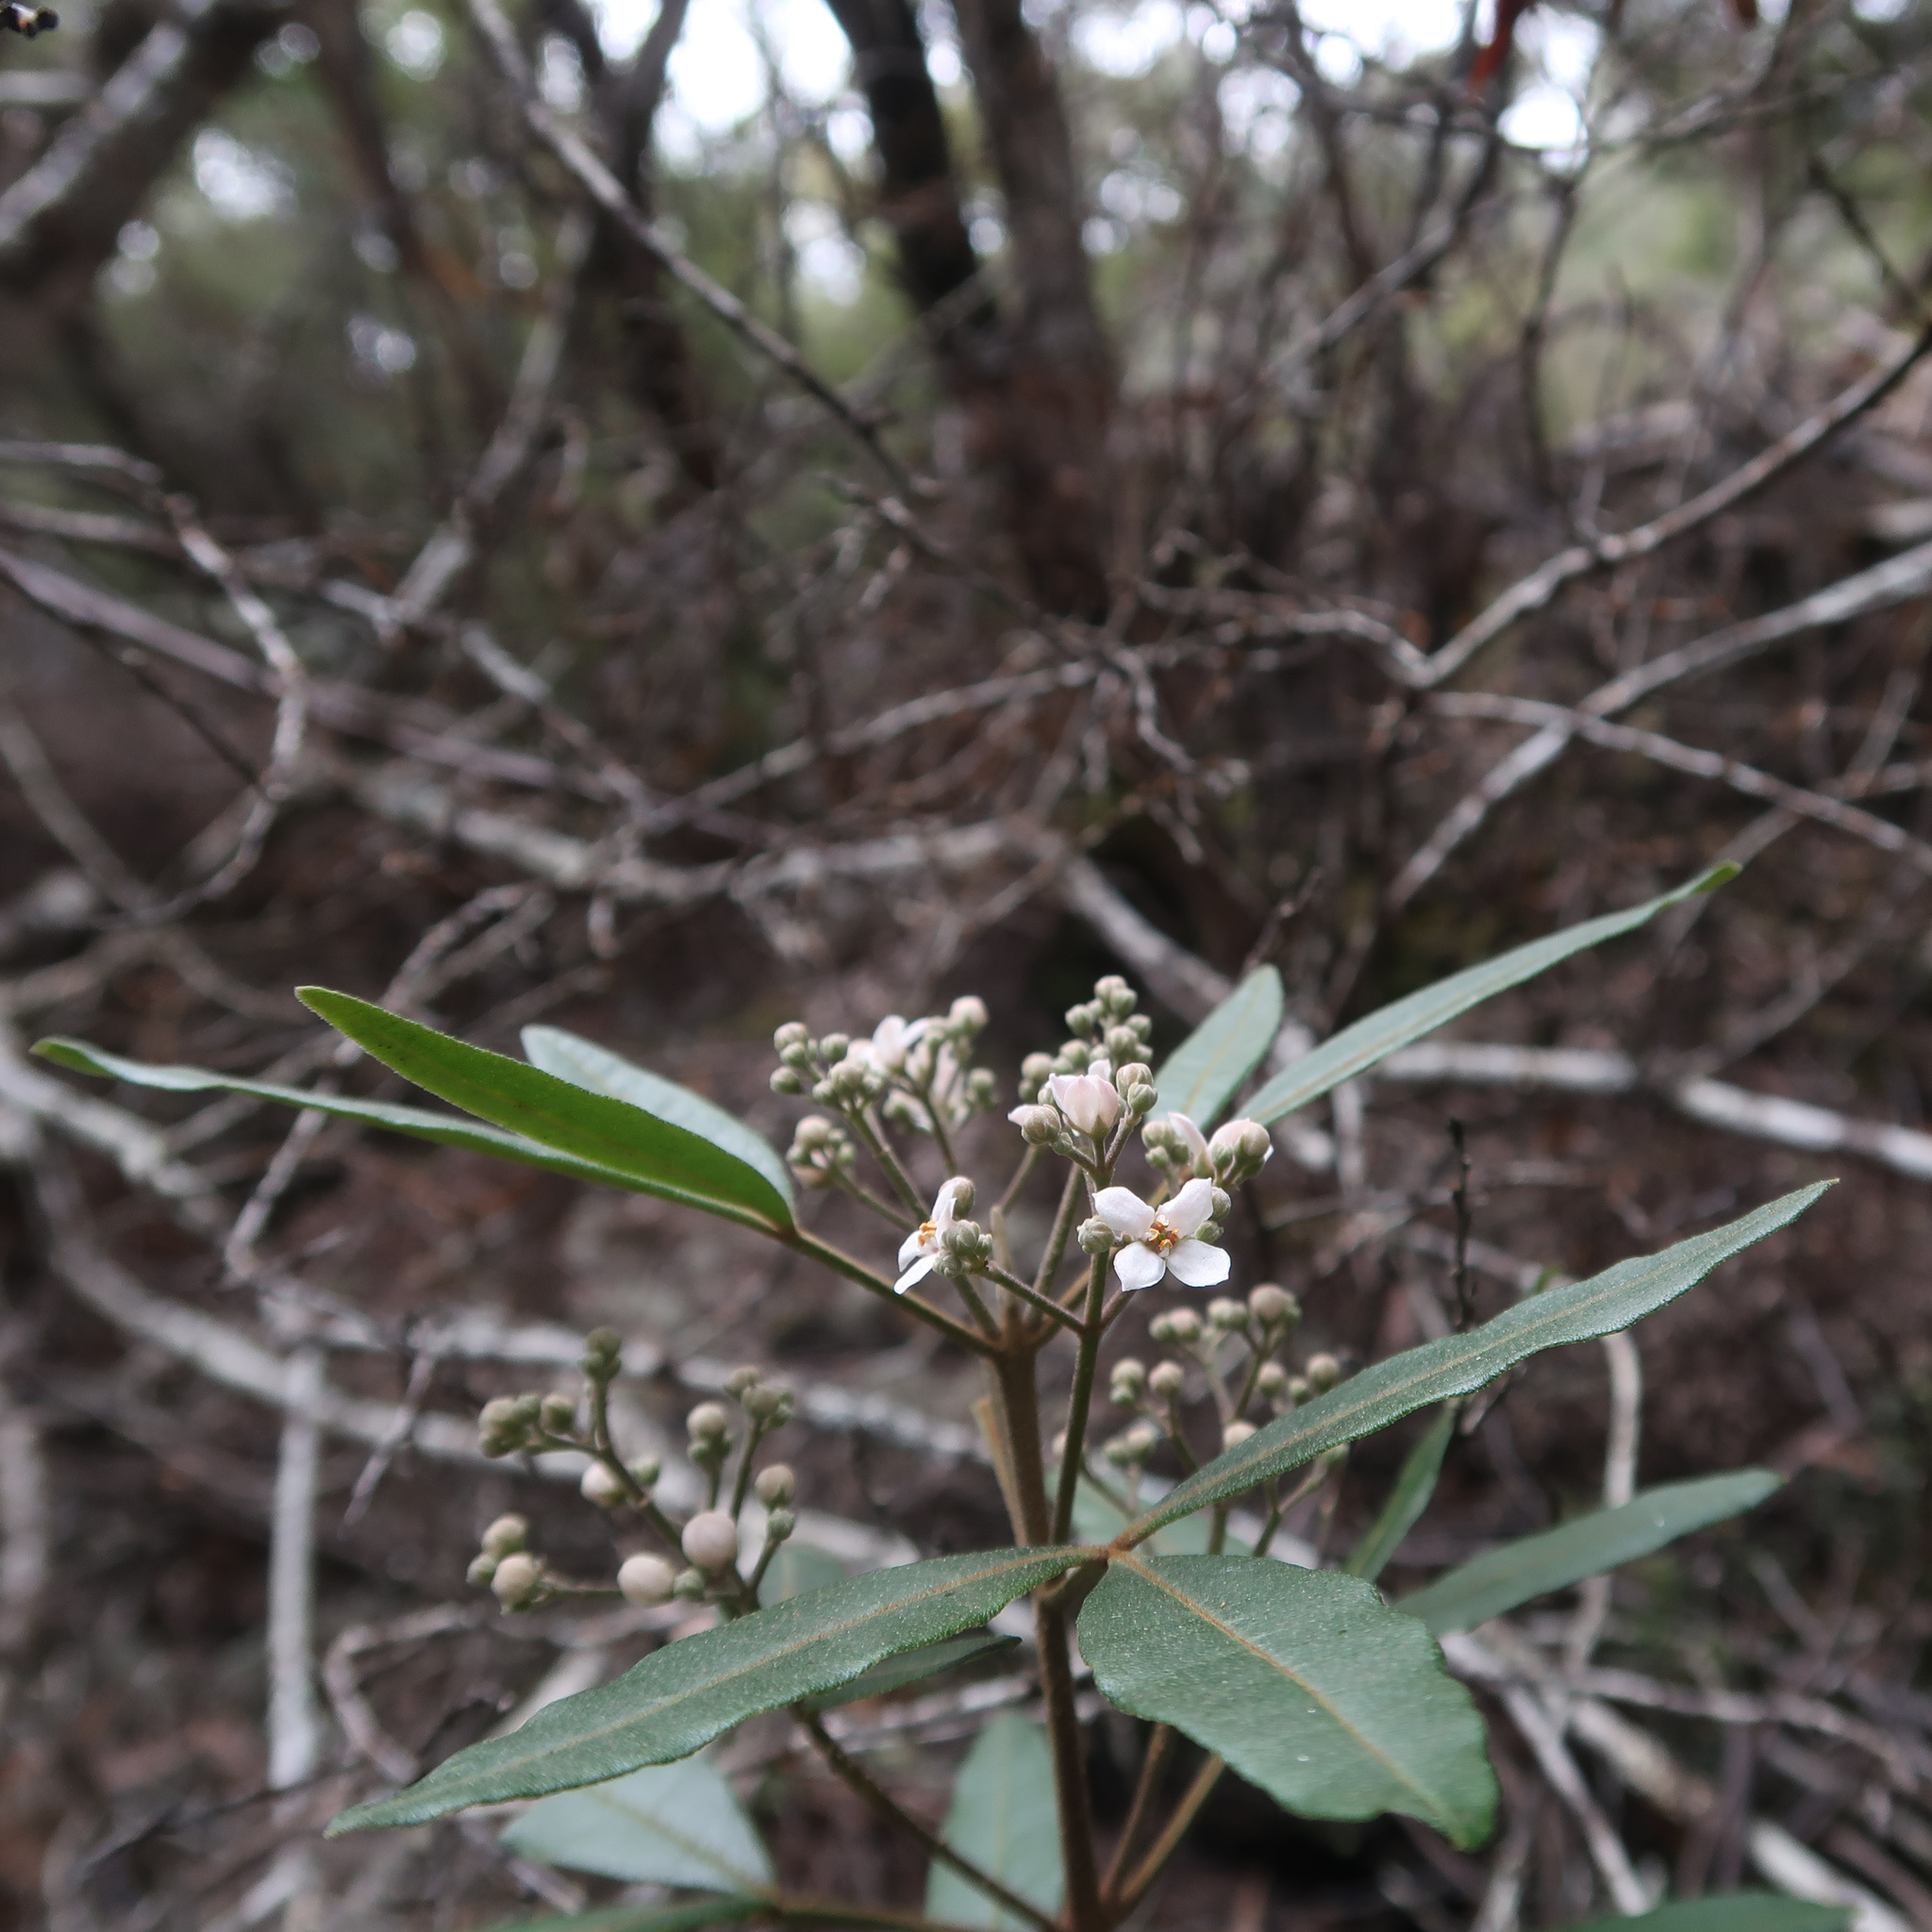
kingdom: Plantae
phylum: Tracheophyta
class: Magnoliopsida
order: Sapindales
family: Rutaceae
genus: Zieria
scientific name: Zieria arborescens
